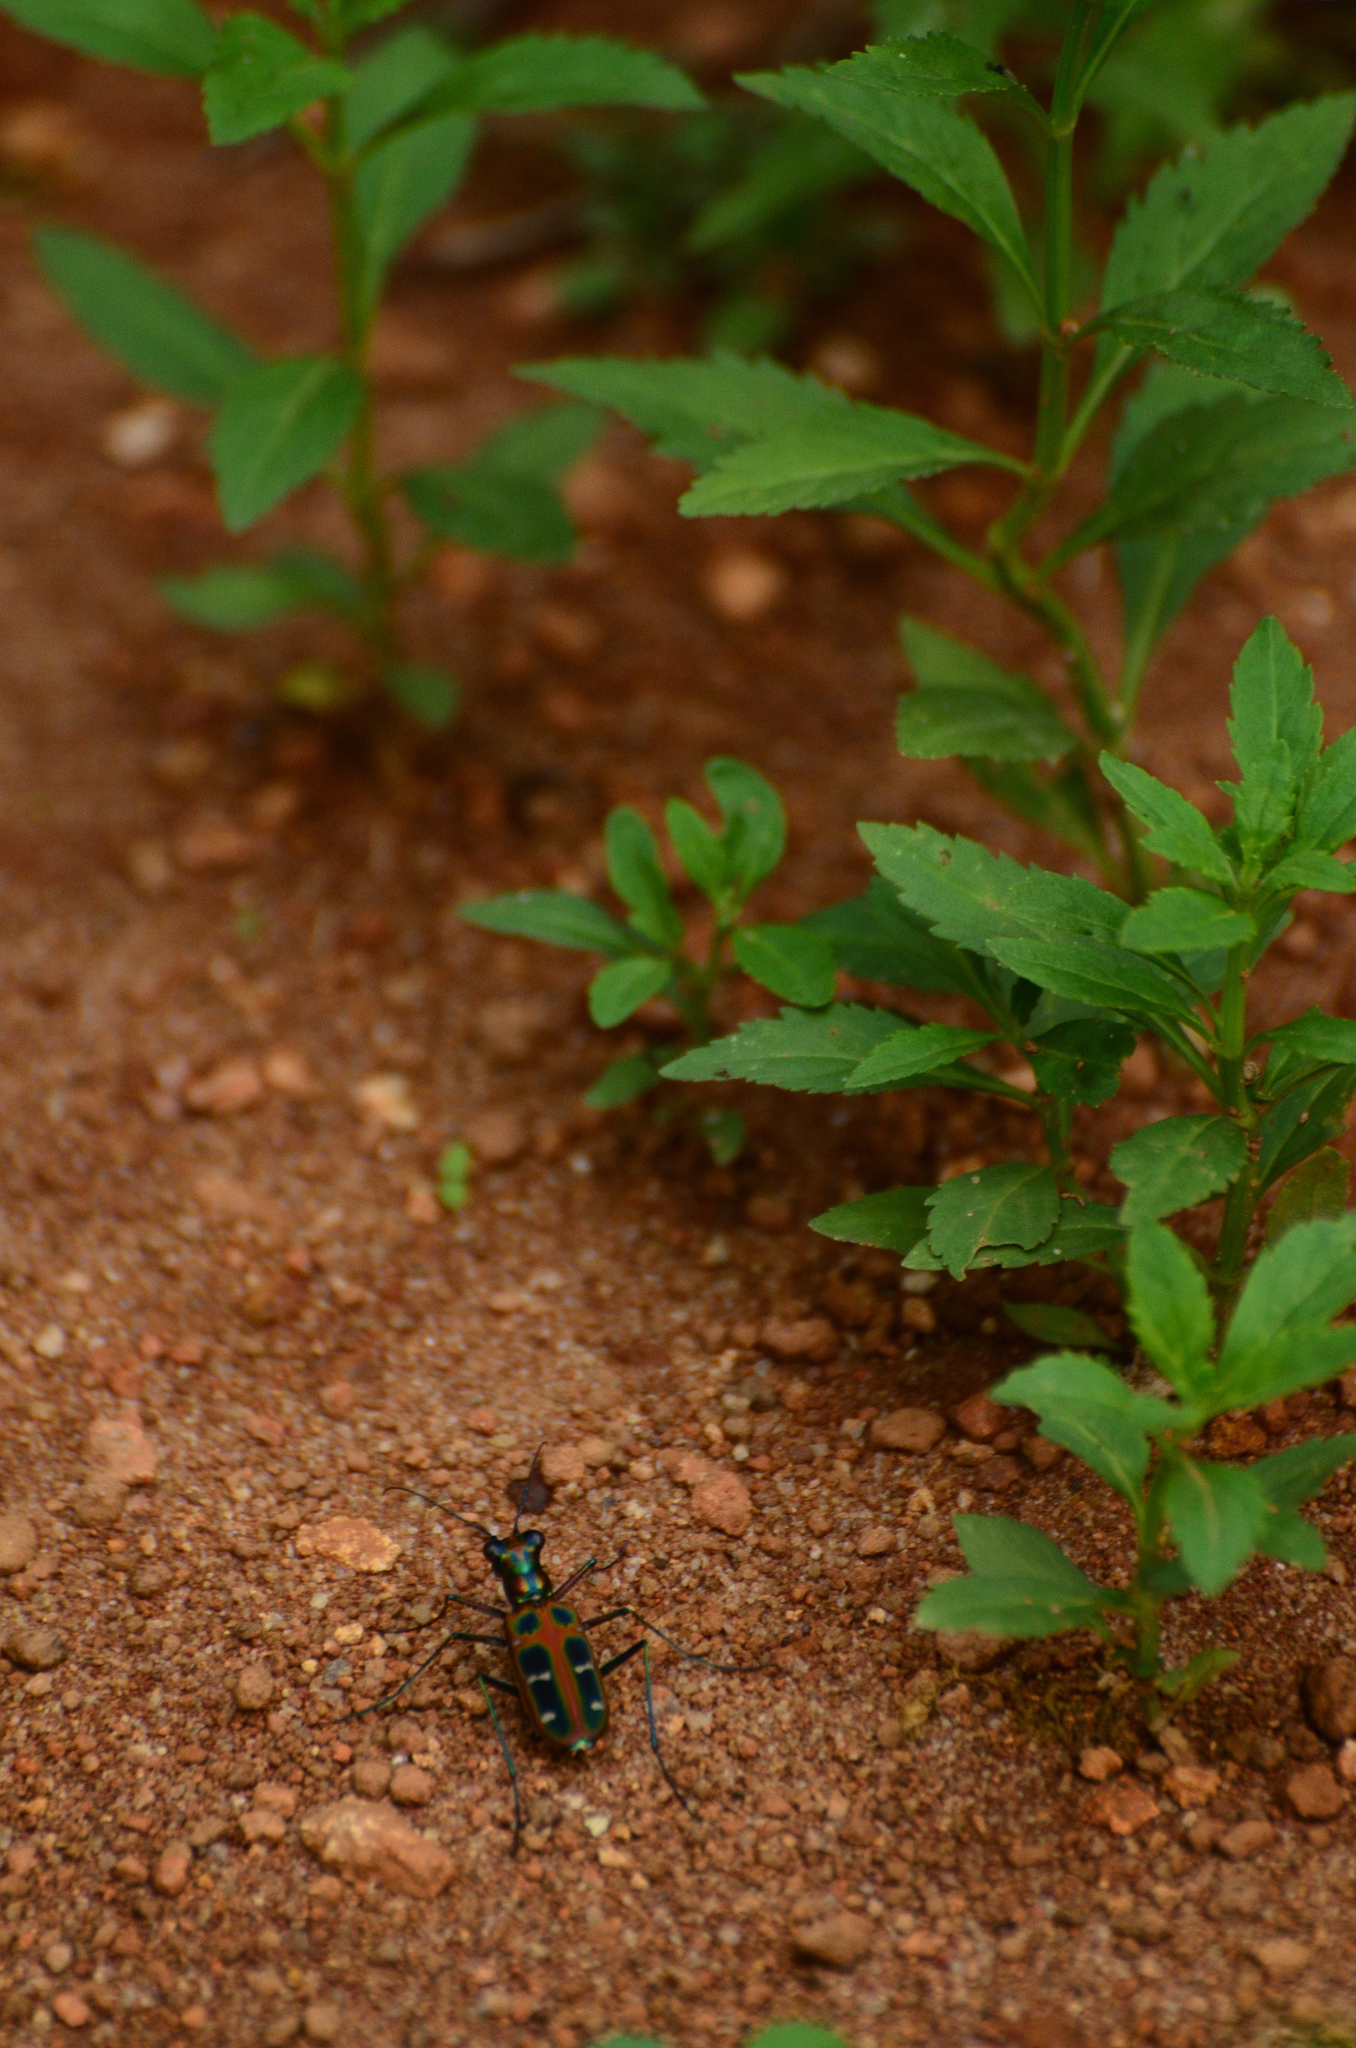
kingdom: Animalia
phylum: Arthropoda
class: Insecta
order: Coleoptera
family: Carabidae
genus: Cicindela
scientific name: Cicindela barmanica
